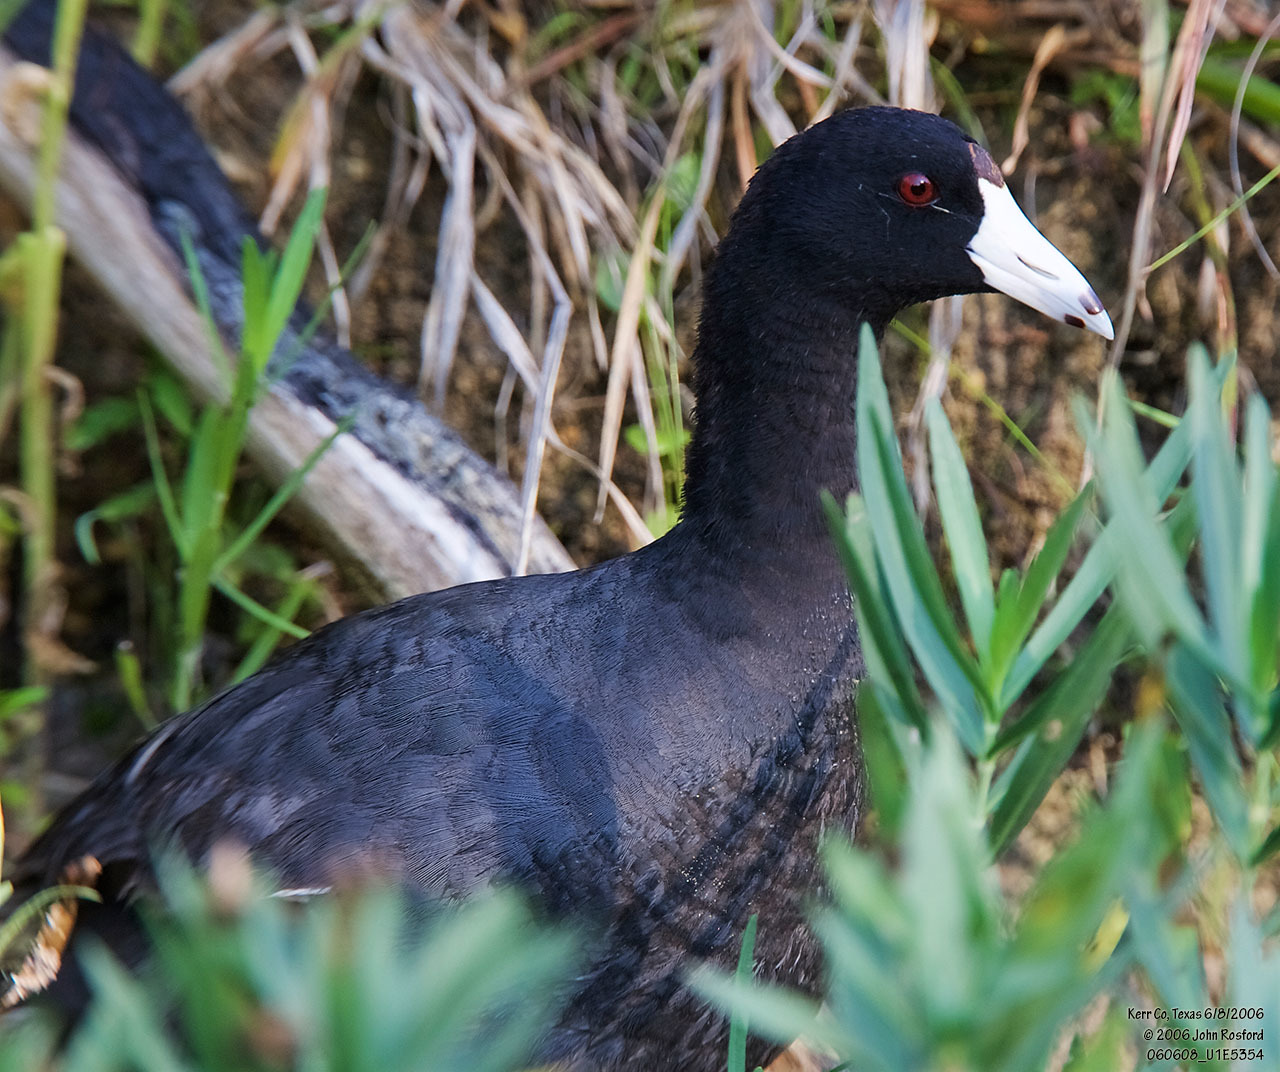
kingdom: Animalia
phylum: Chordata
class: Aves
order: Gruiformes
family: Rallidae
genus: Fulica
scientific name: Fulica americana
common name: American coot
